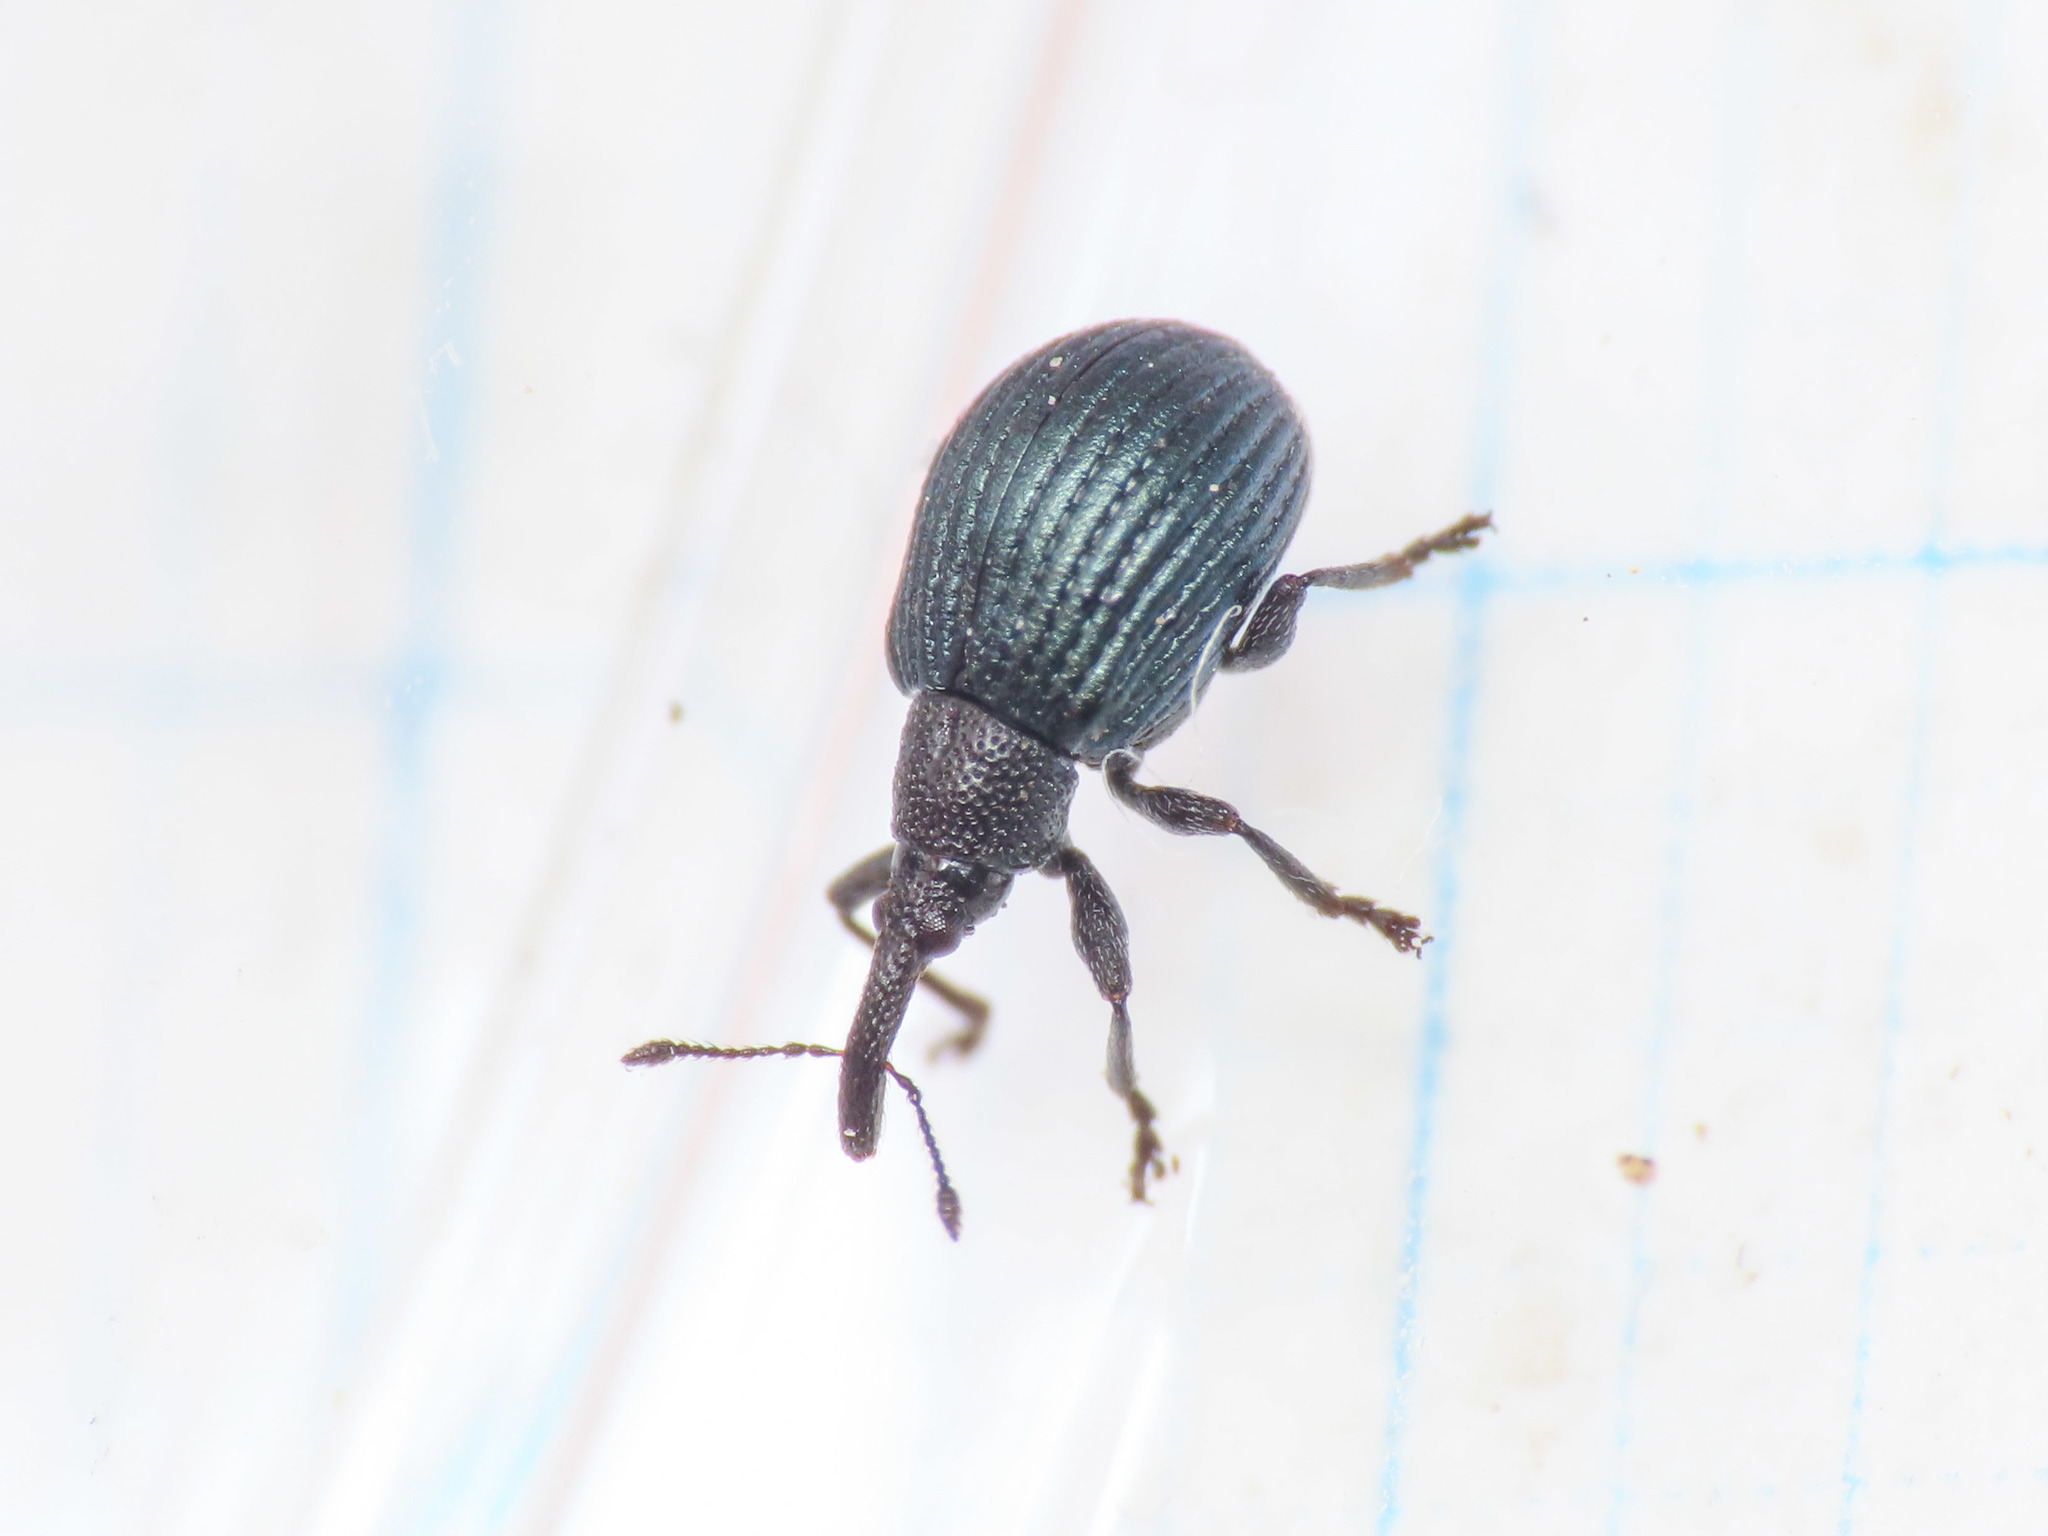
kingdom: Animalia
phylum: Arthropoda
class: Insecta
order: Coleoptera
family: Apionidae
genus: Holotrichapion
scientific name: Holotrichapion pisi
